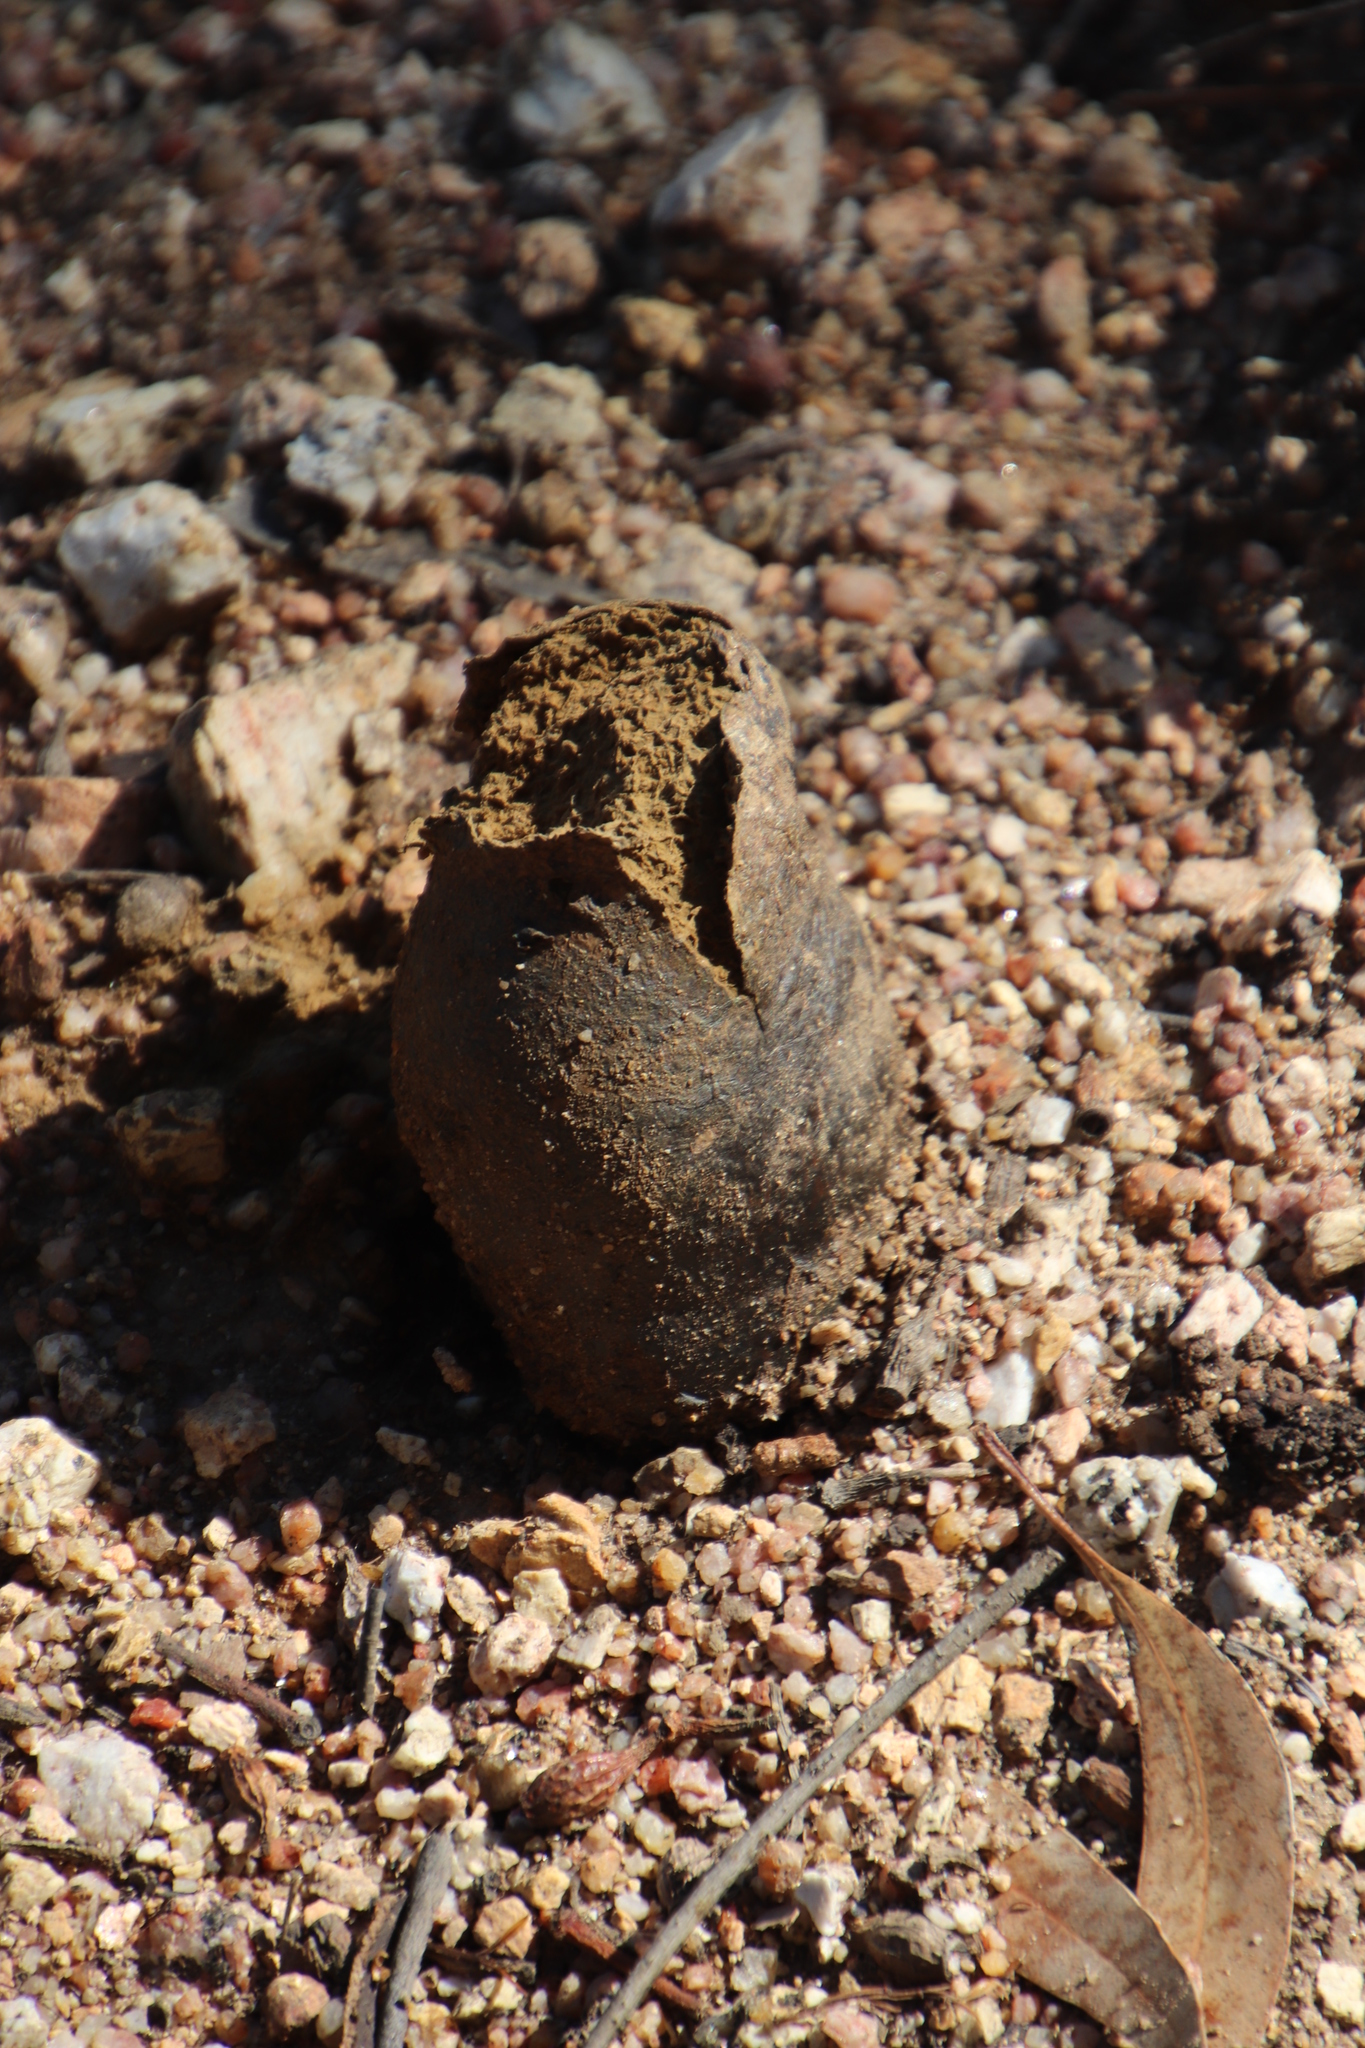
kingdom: Fungi
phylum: Basidiomycota
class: Agaricomycetes
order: Boletales
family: Sclerodermataceae
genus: Pisolithus
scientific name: Pisolithus arhizus
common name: Dyeball
